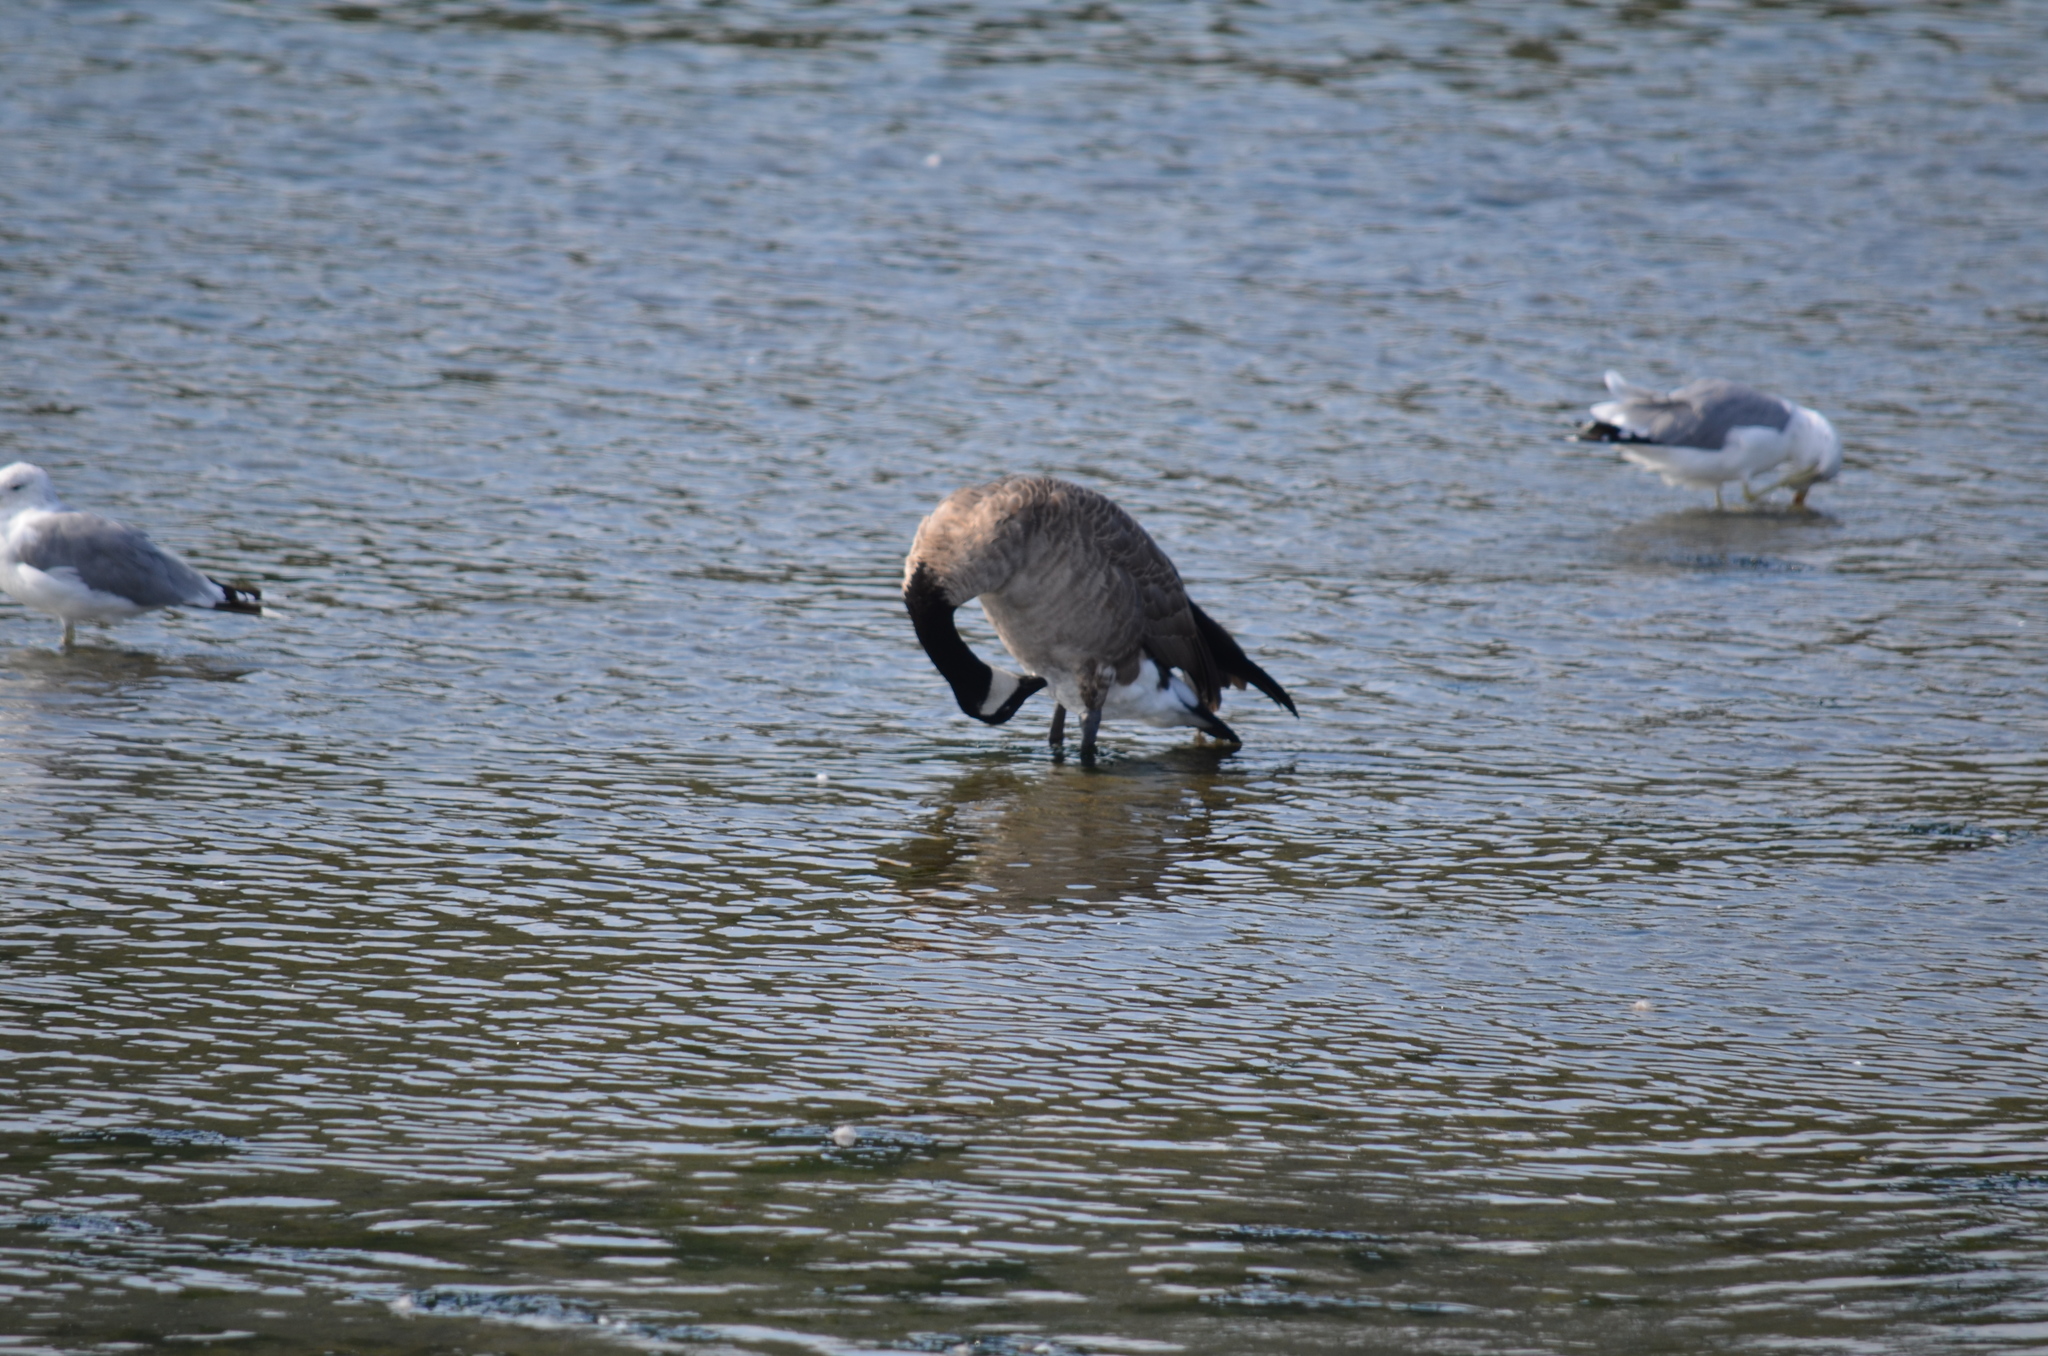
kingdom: Animalia
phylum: Chordata
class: Aves
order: Anseriformes
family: Anatidae
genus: Branta
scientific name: Branta canadensis
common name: Canada goose
